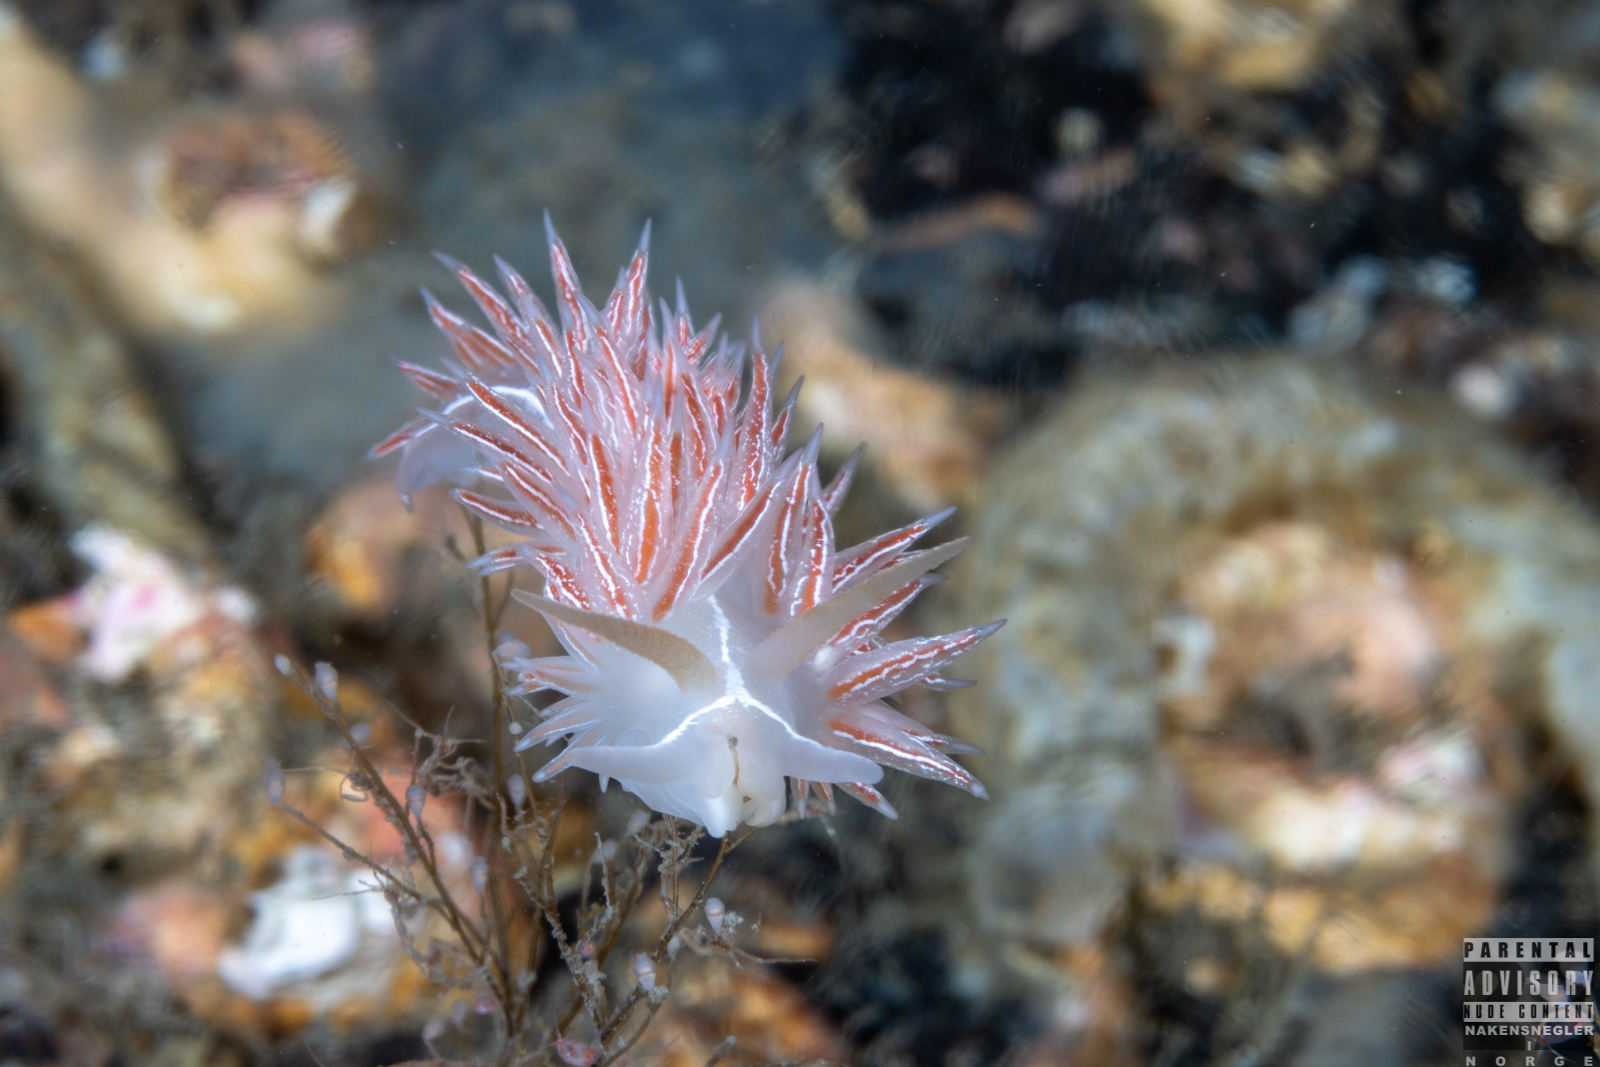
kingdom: Animalia
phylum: Mollusca
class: Gastropoda
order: Nudibranchia
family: Coryphellidae
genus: Coryphella
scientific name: Coryphella chriskaugei
